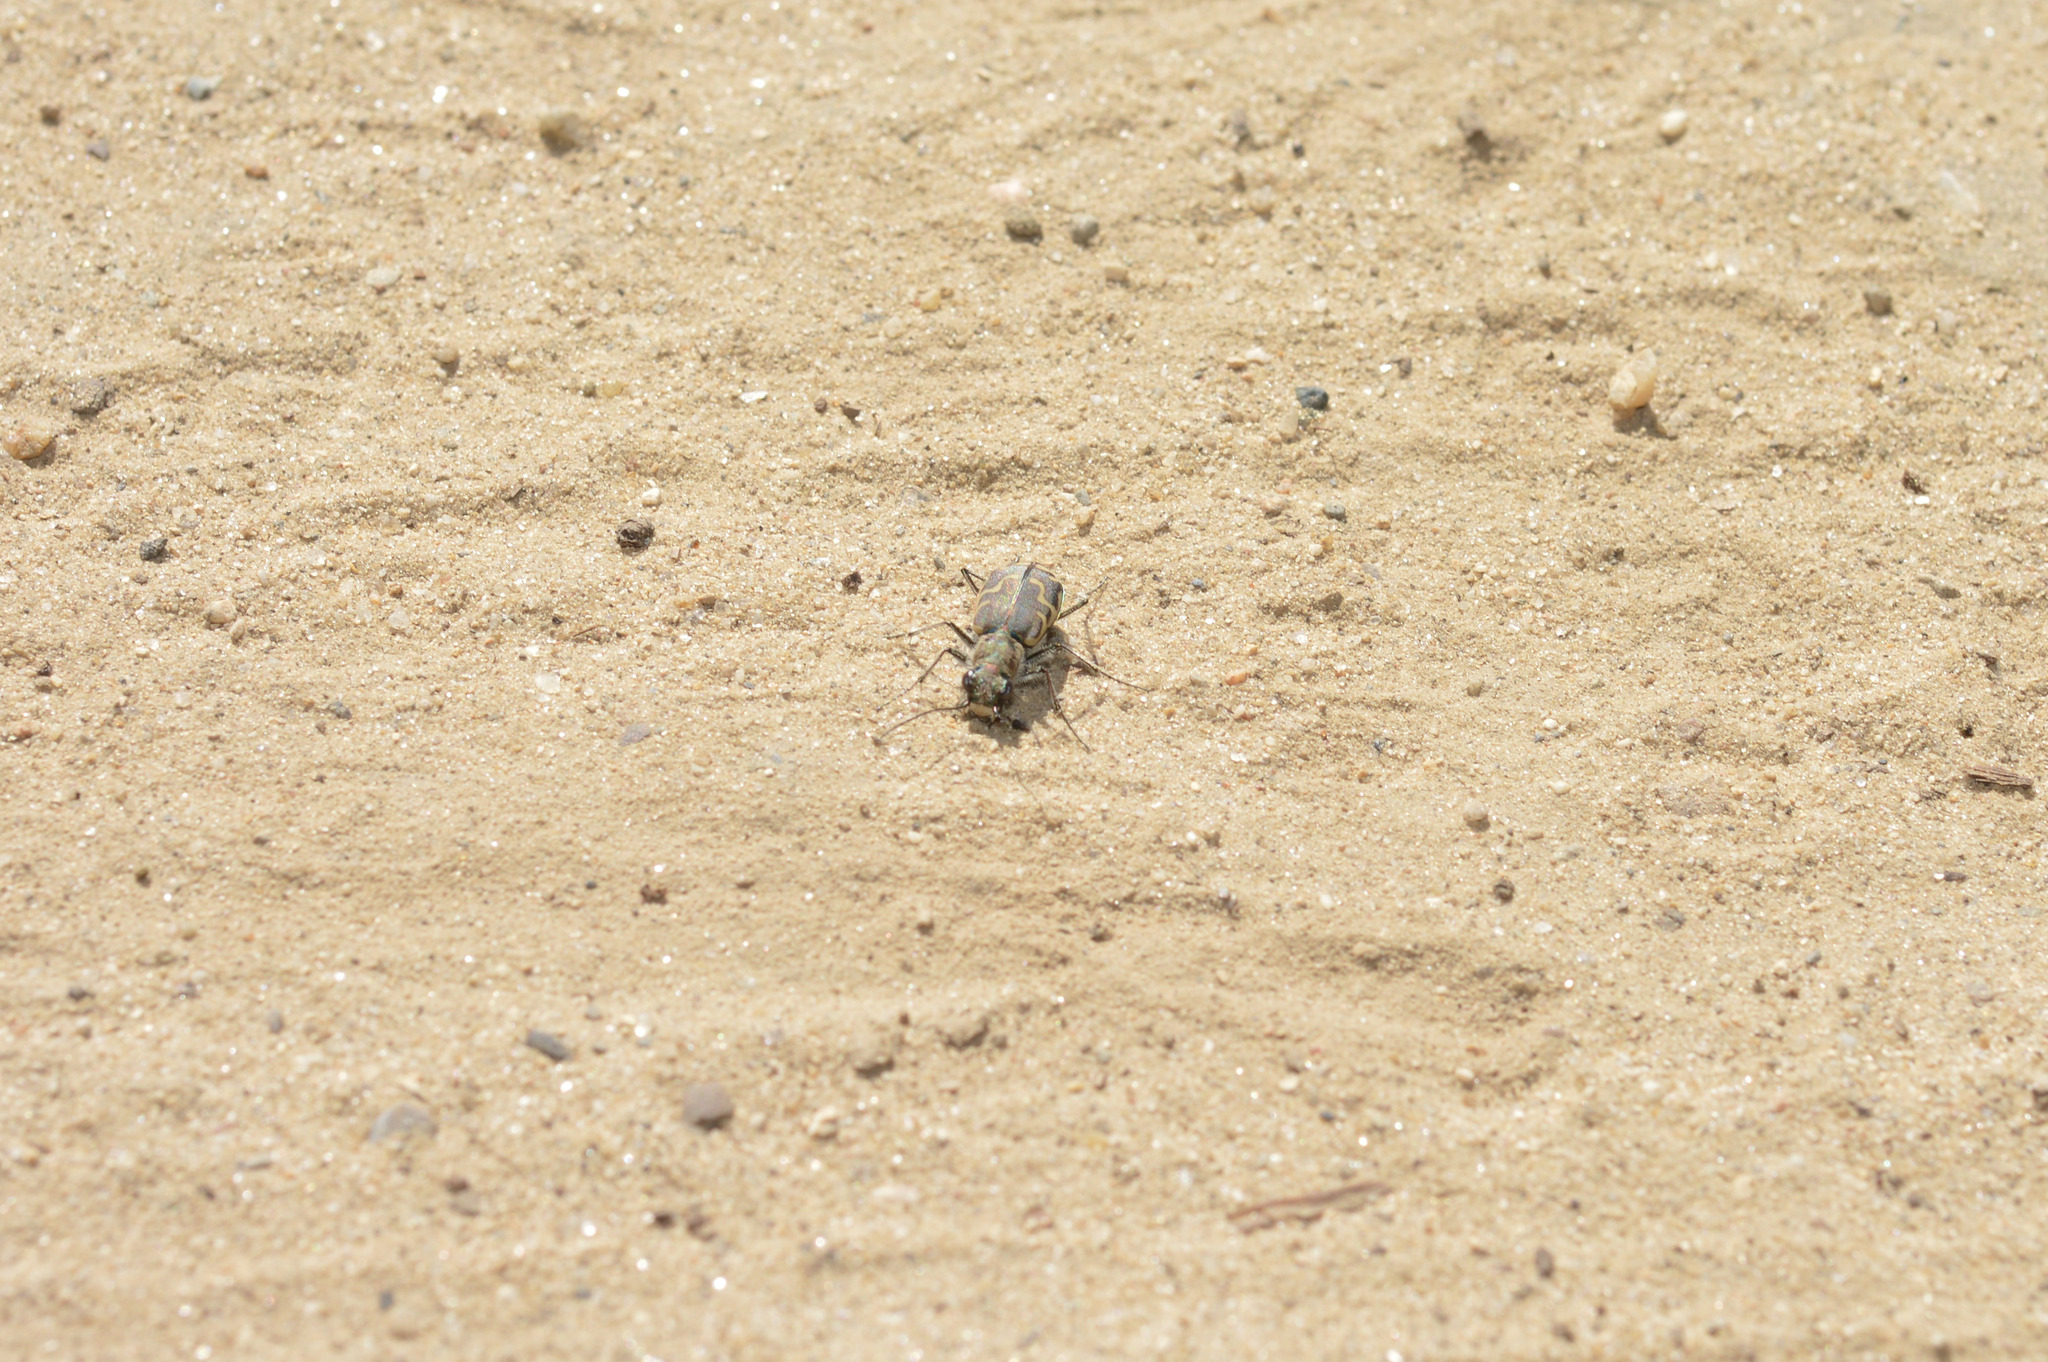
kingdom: Animalia
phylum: Arthropoda
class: Insecta
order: Coleoptera
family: Carabidae
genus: Cicindela
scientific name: Cicindela repanda
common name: Bronzed tiger beetle
